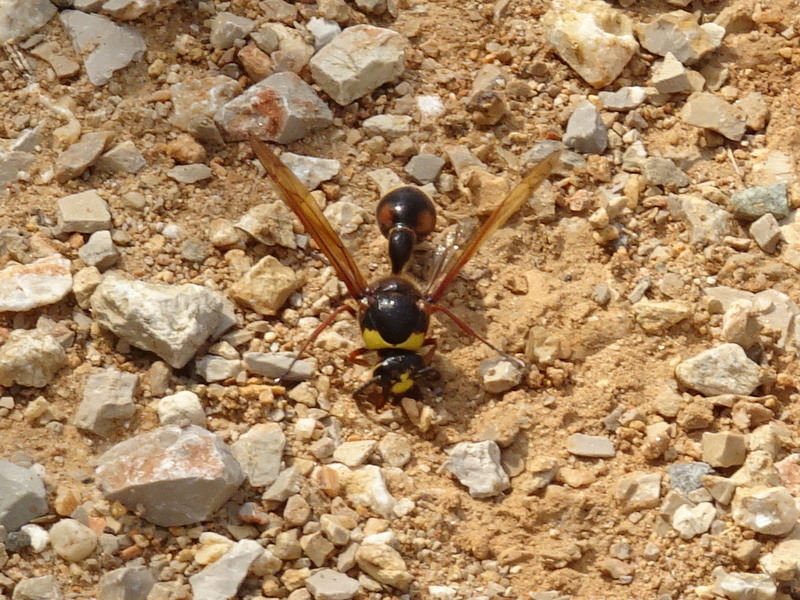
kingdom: Animalia
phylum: Arthropoda
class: Insecta
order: Hymenoptera
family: Eumenidae
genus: Delta
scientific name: Delta unguiculatum
